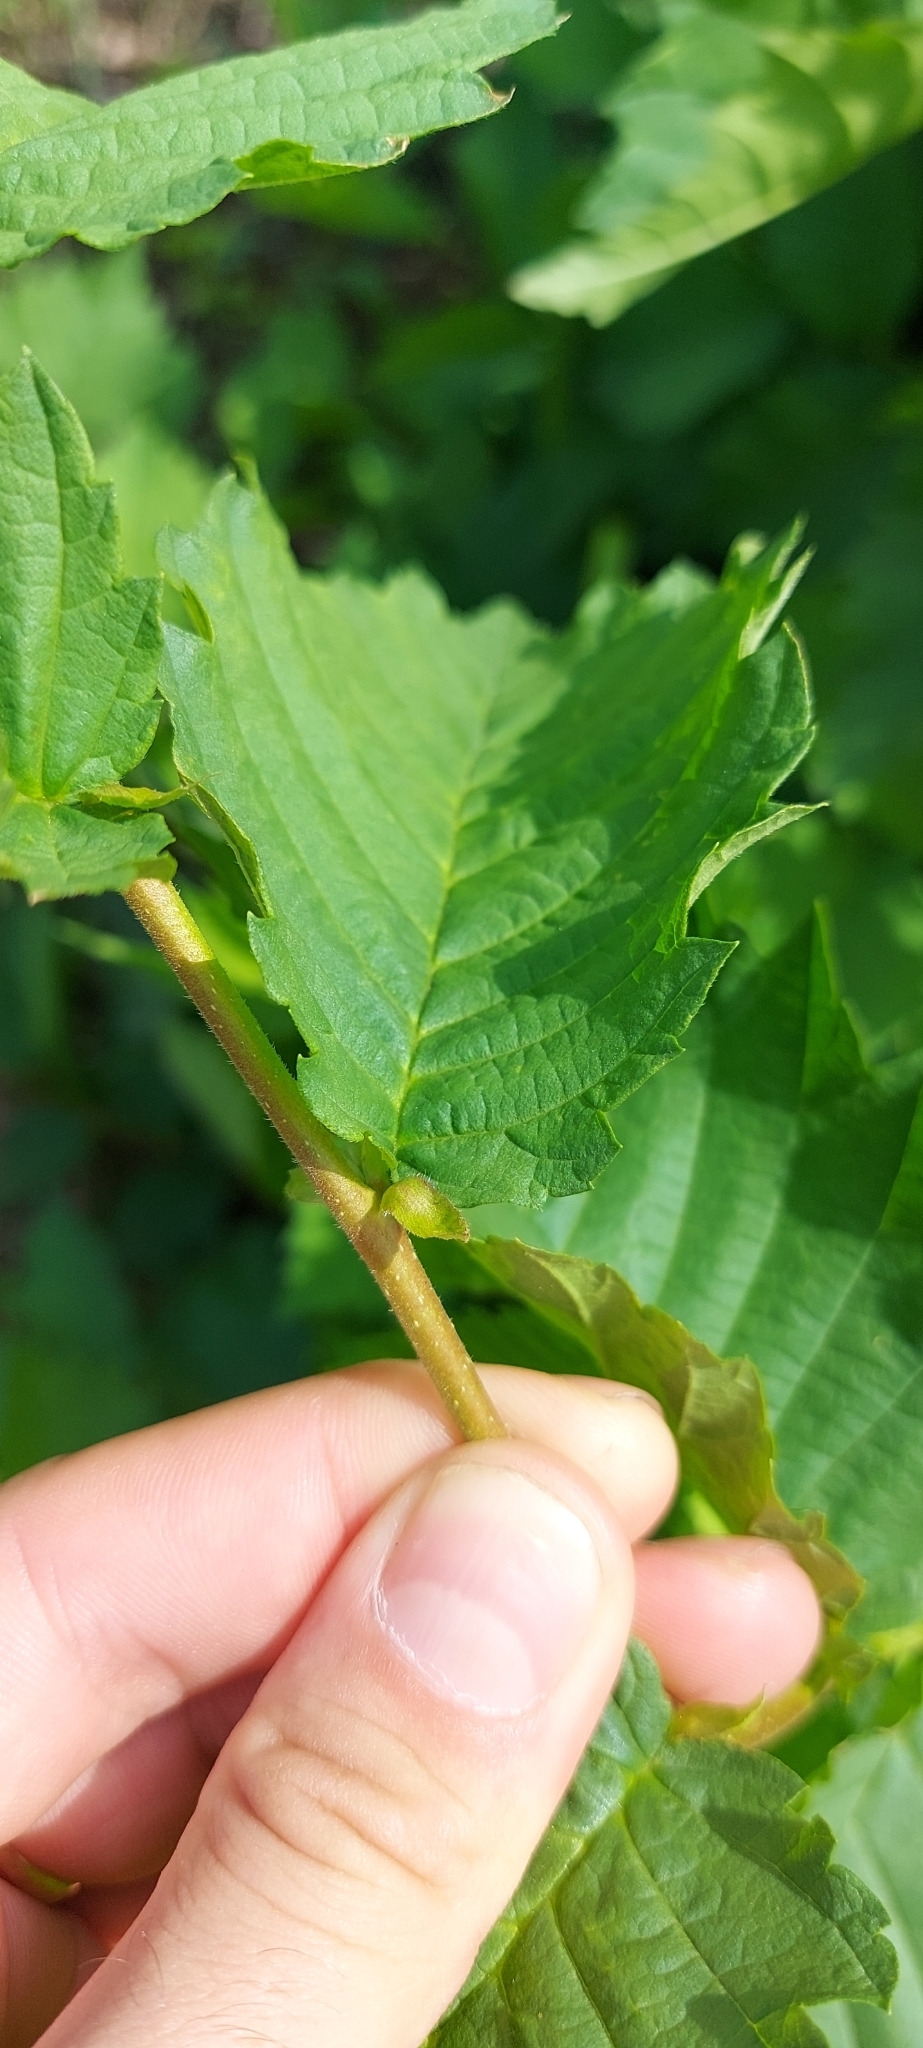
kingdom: Plantae
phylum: Tracheophyta
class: Magnoliopsida
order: Rosales
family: Ulmaceae
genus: Ulmus
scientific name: Ulmus laevis
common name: European white-elm
